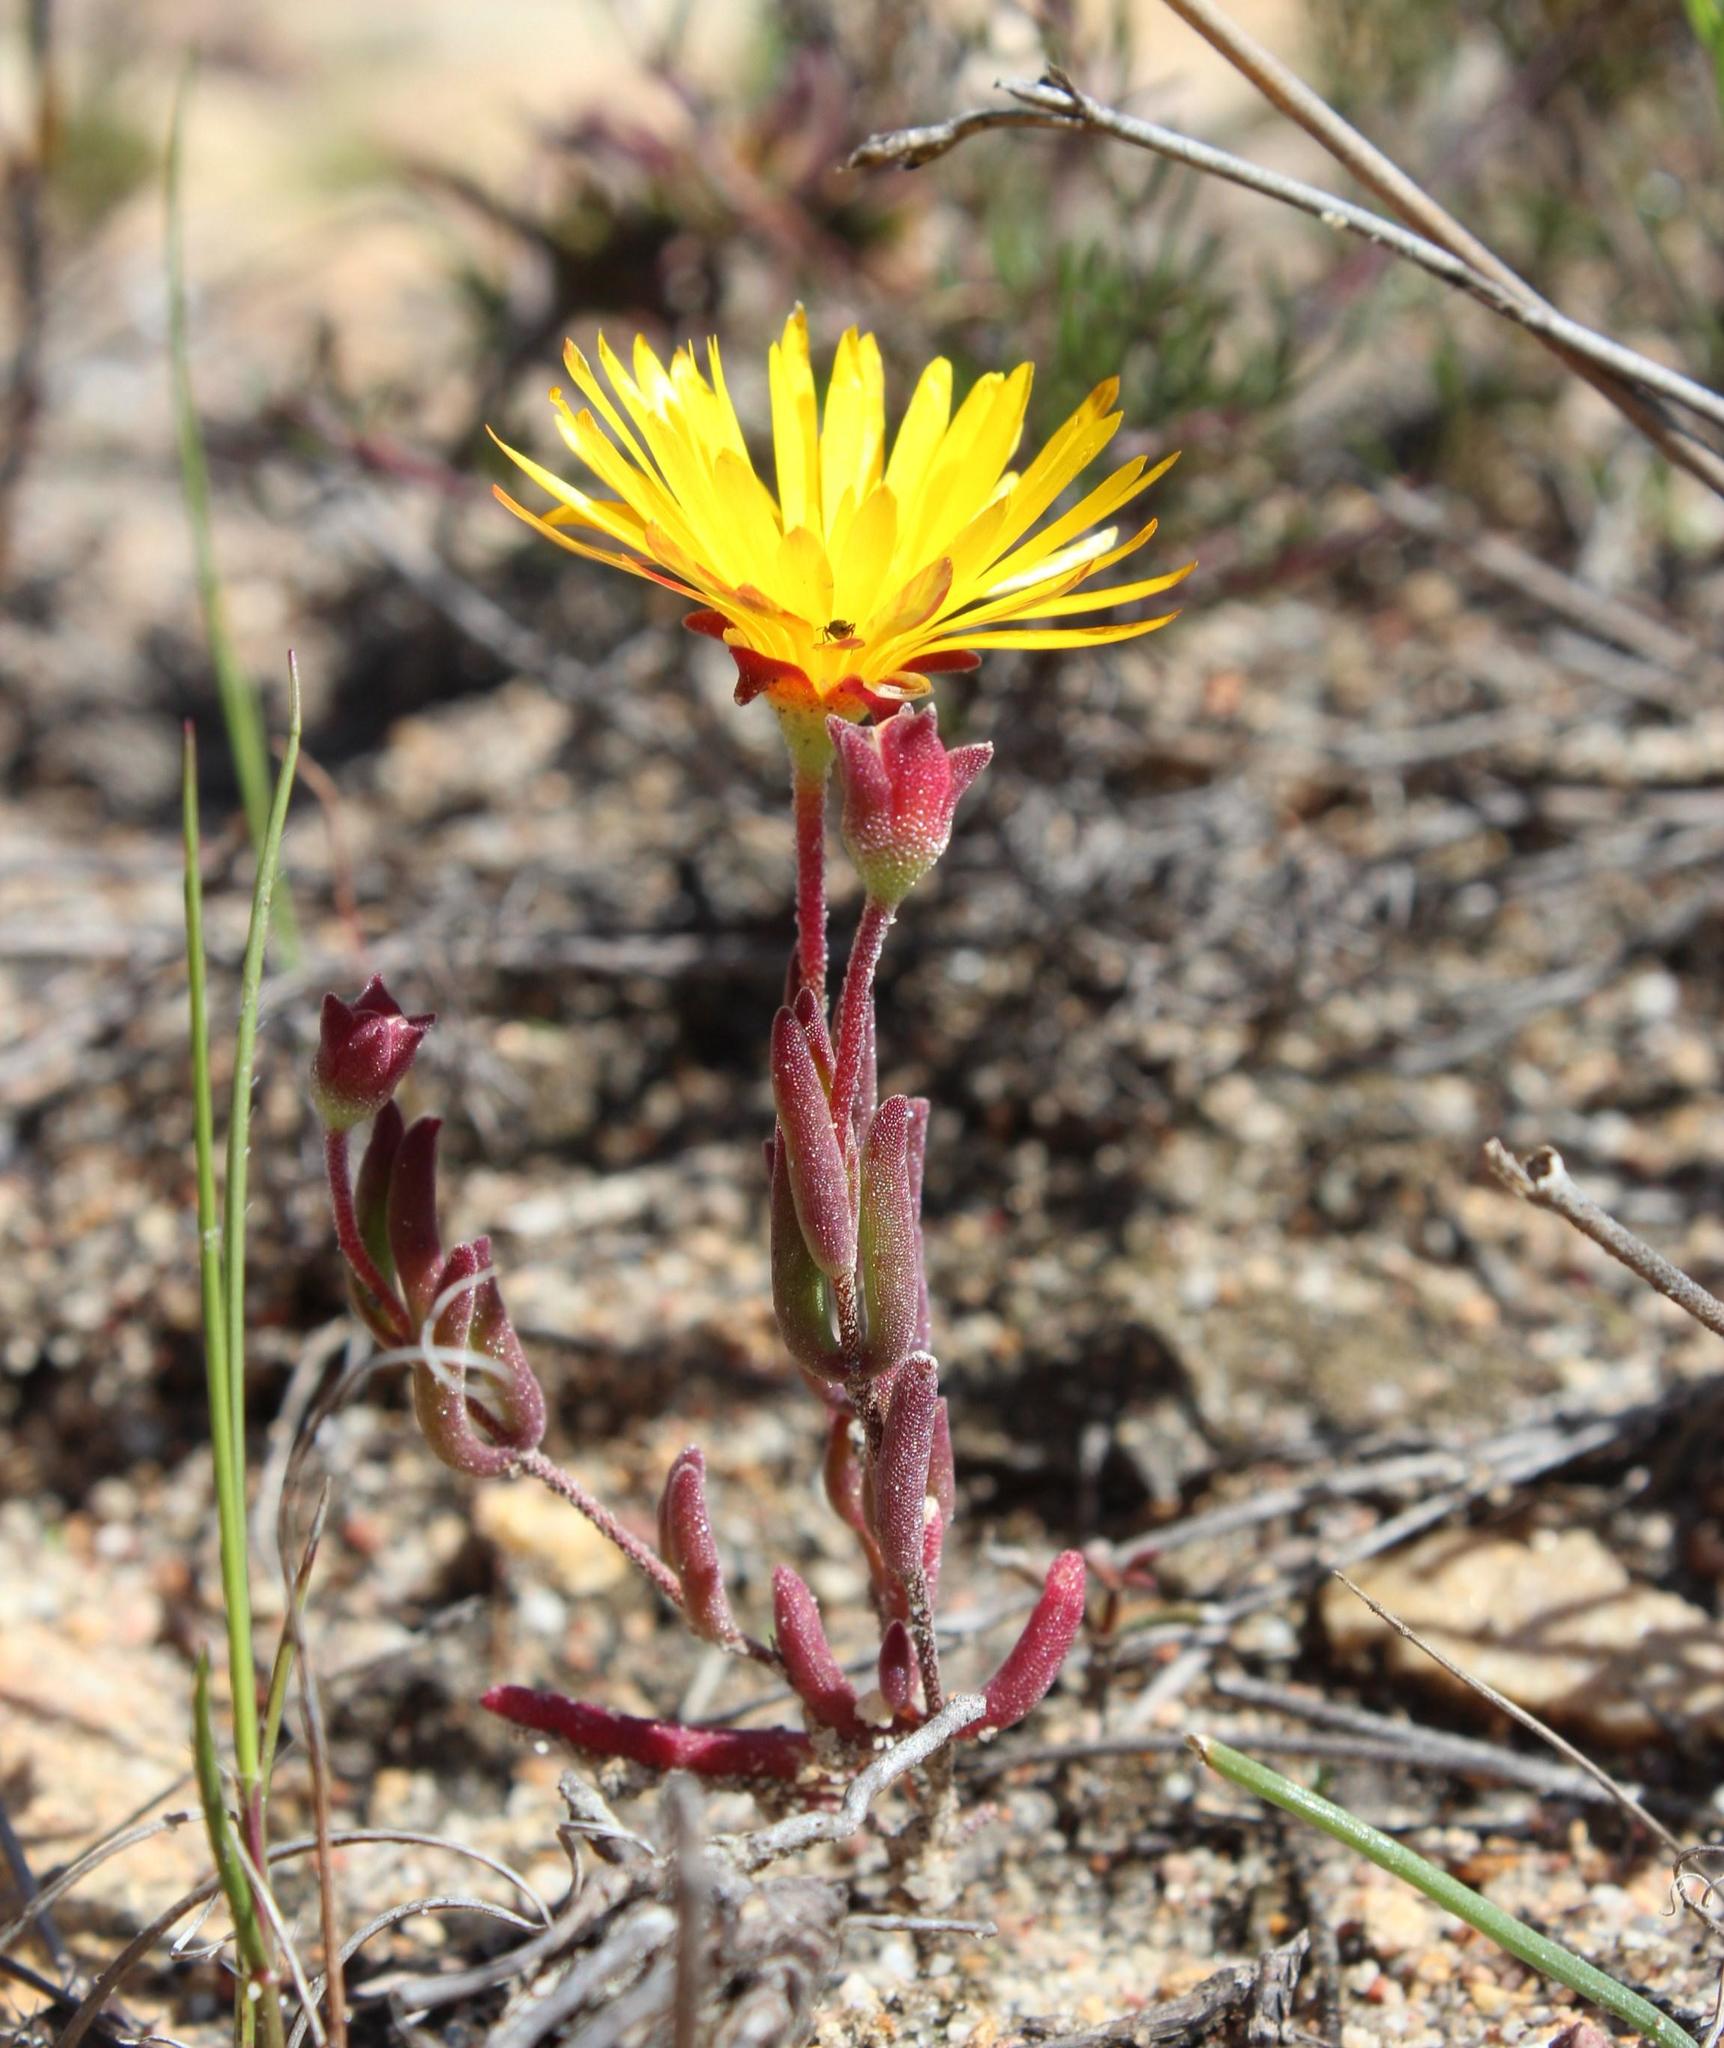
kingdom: Plantae
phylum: Tracheophyta
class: Magnoliopsida
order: Caryophyllales
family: Aizoaceae
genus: Drosanthemum
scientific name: Drosanthemum flavum
